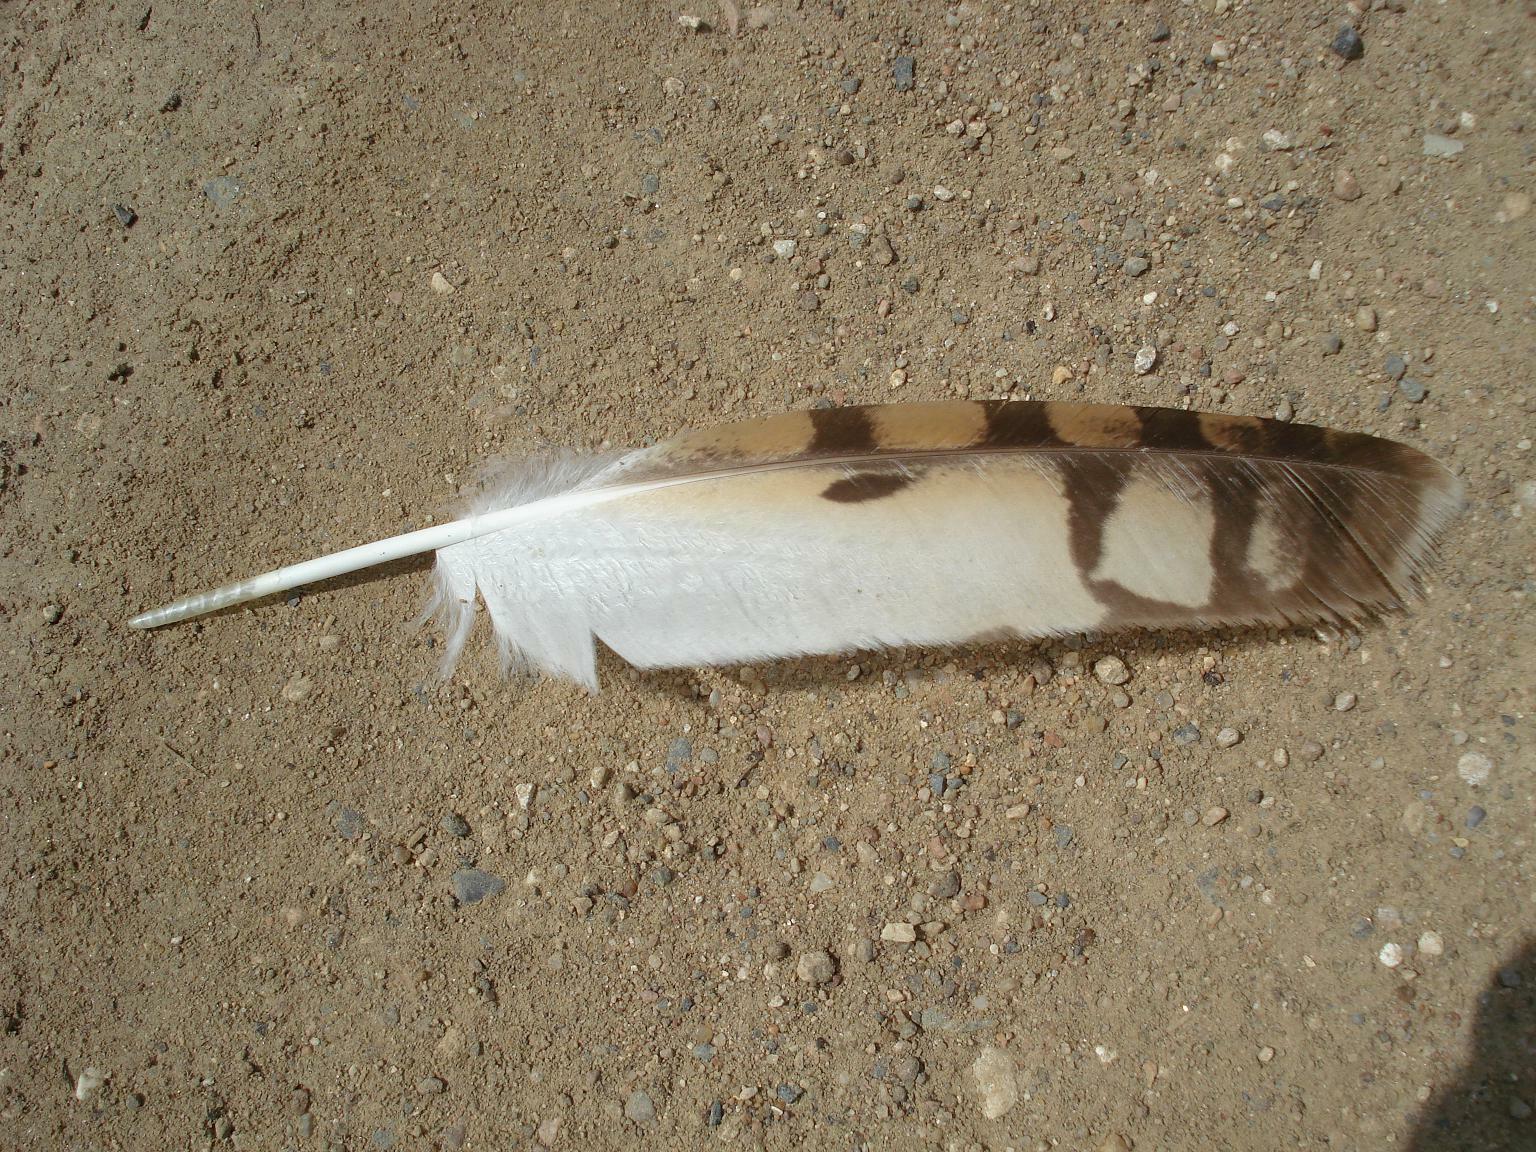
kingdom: Animalia
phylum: Chordata
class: Aves
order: Strigiformes
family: Strigidae
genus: Asio
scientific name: Asio flammeus
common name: Short-eared owl
